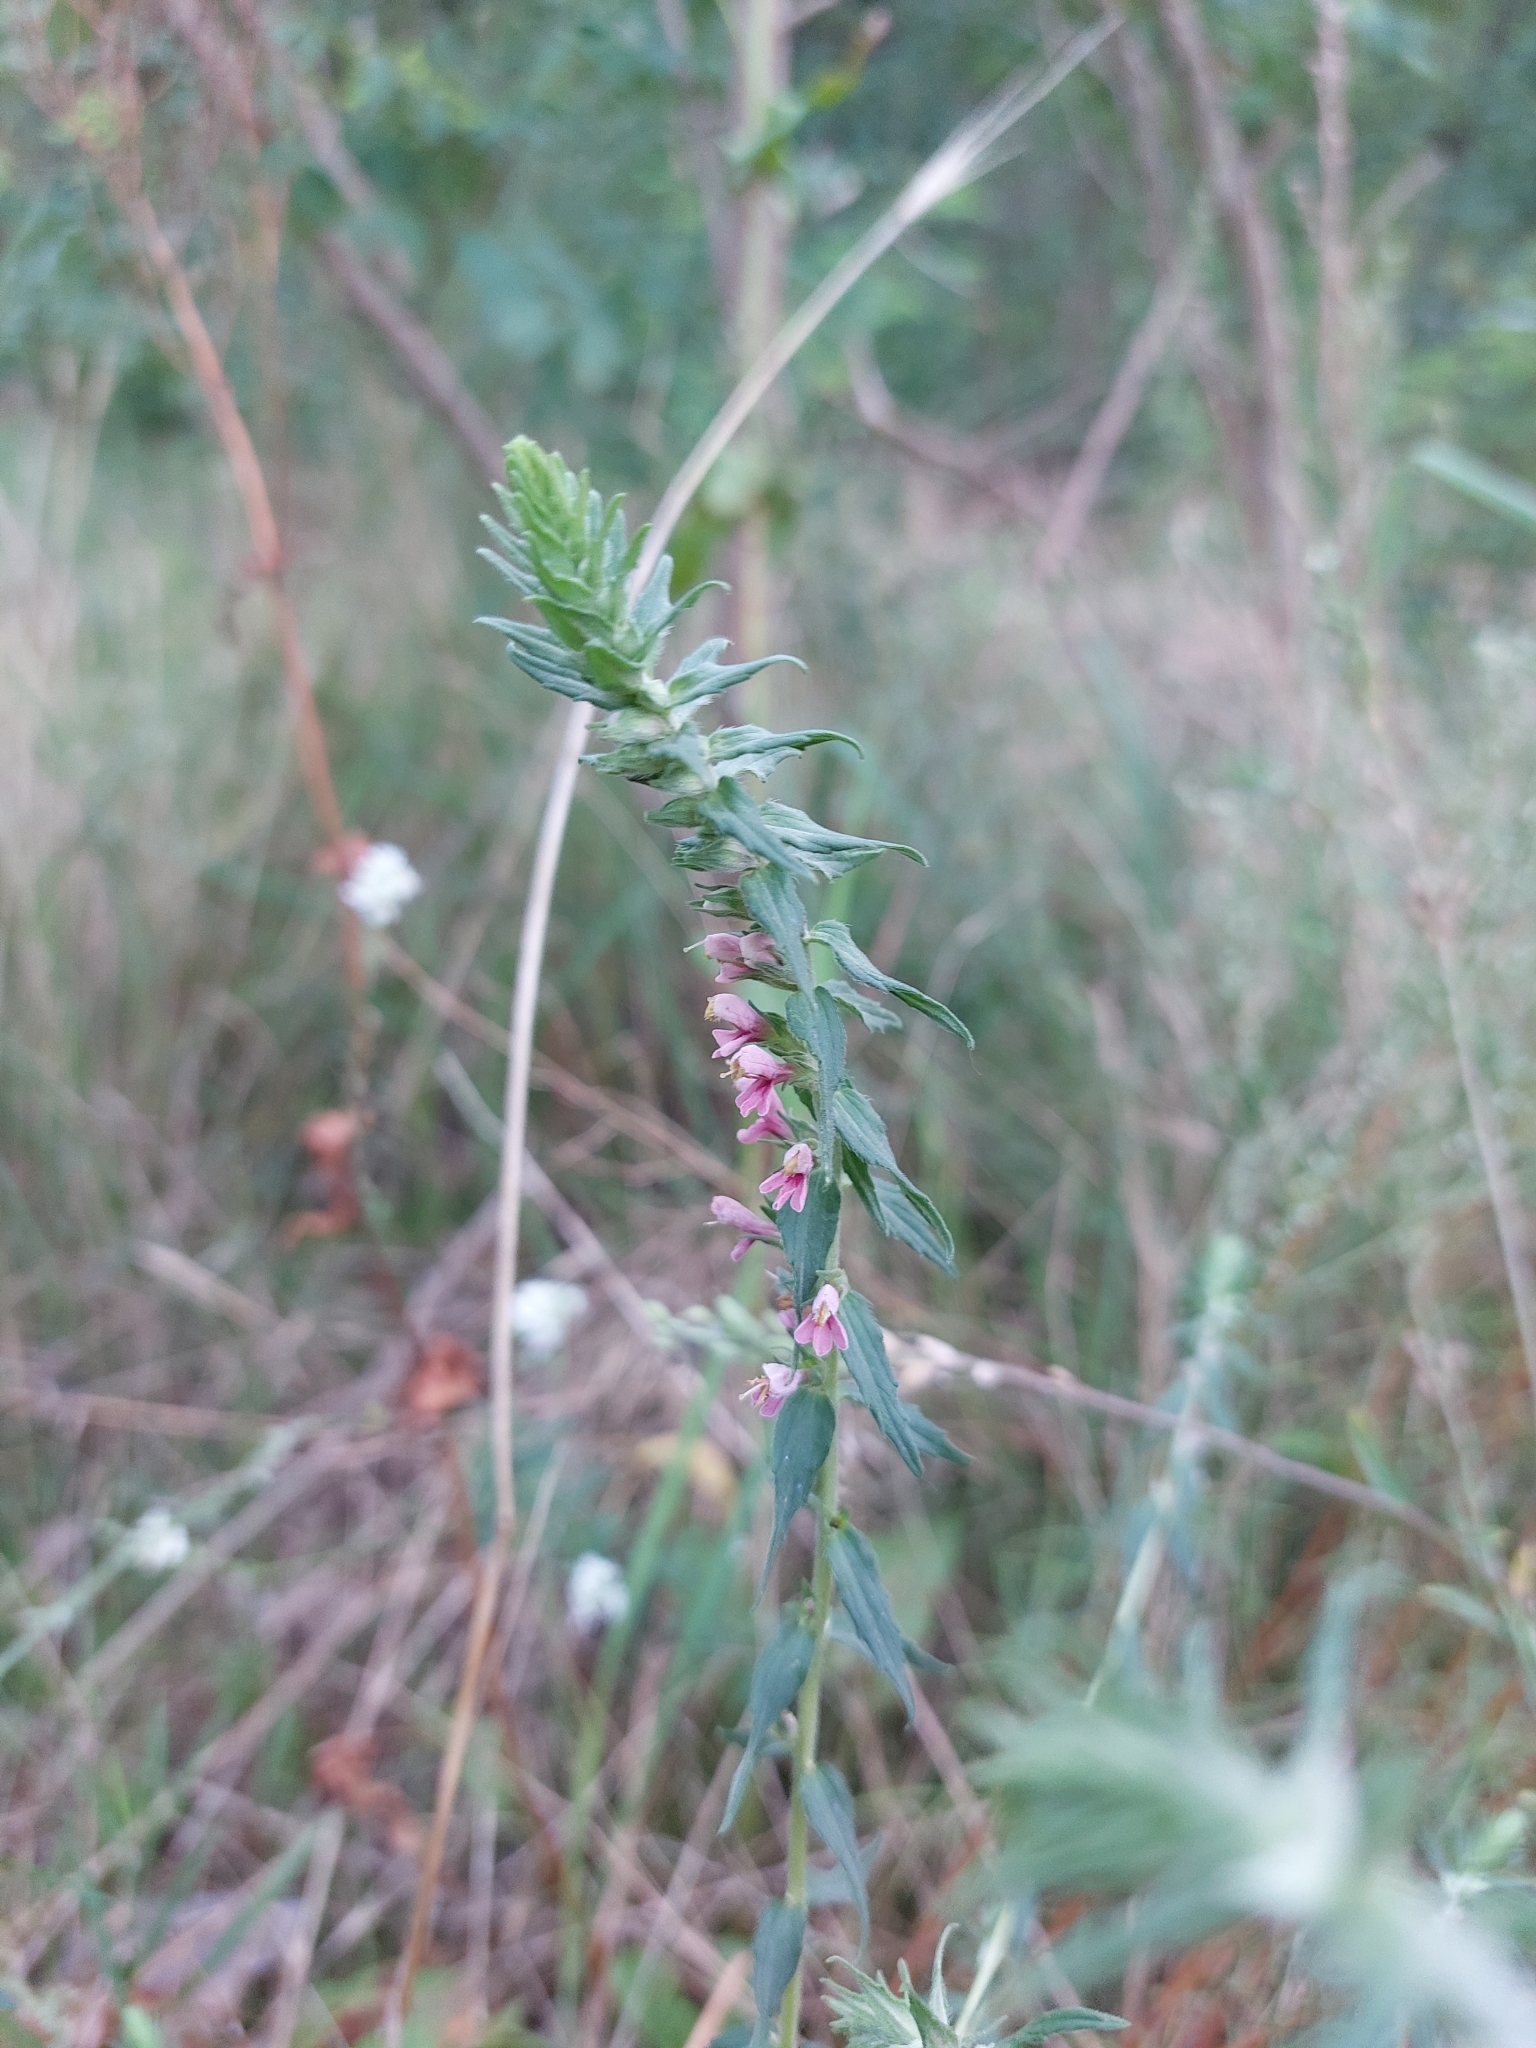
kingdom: Plantae
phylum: Tracheophyta
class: Magnoliopsida
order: Lamiales
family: Orobanchaceae
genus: Odontites
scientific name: Odontites vulgaris
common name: Broomrape
